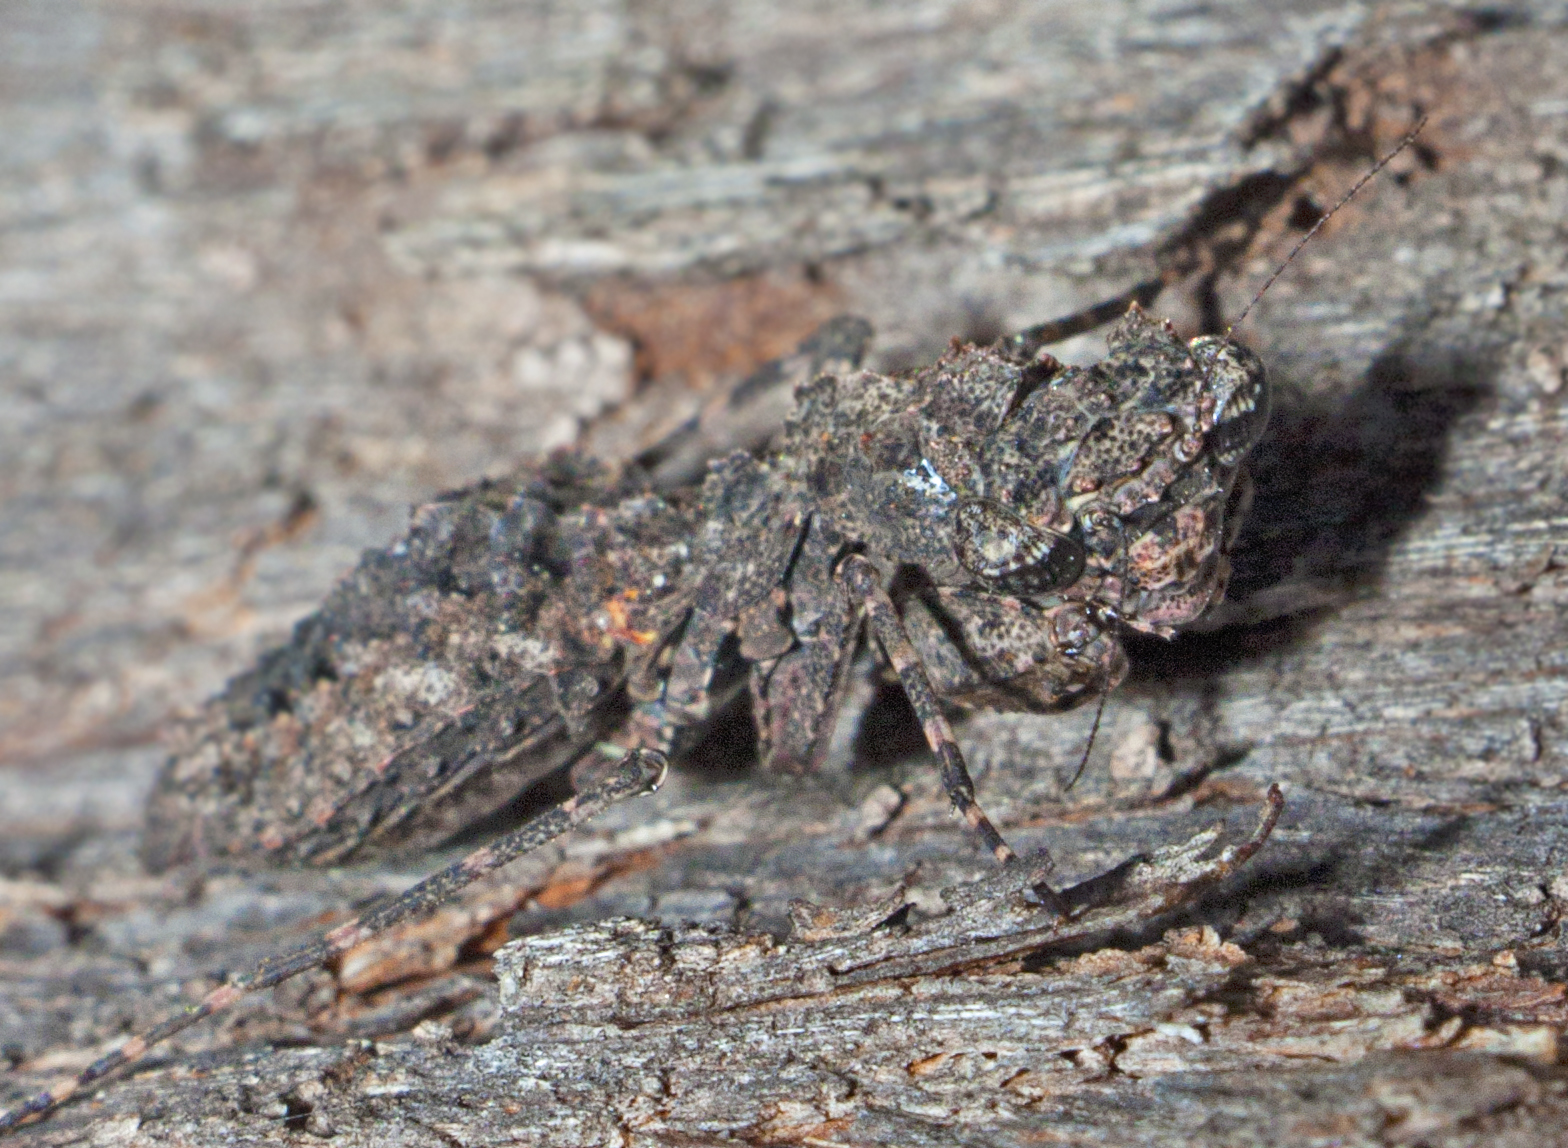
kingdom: Animalia
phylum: Arthropoda
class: Insecta
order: Mantodea
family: Nanomantidae
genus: Paraoxypilus
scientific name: Paraoxypilus verreauxii
